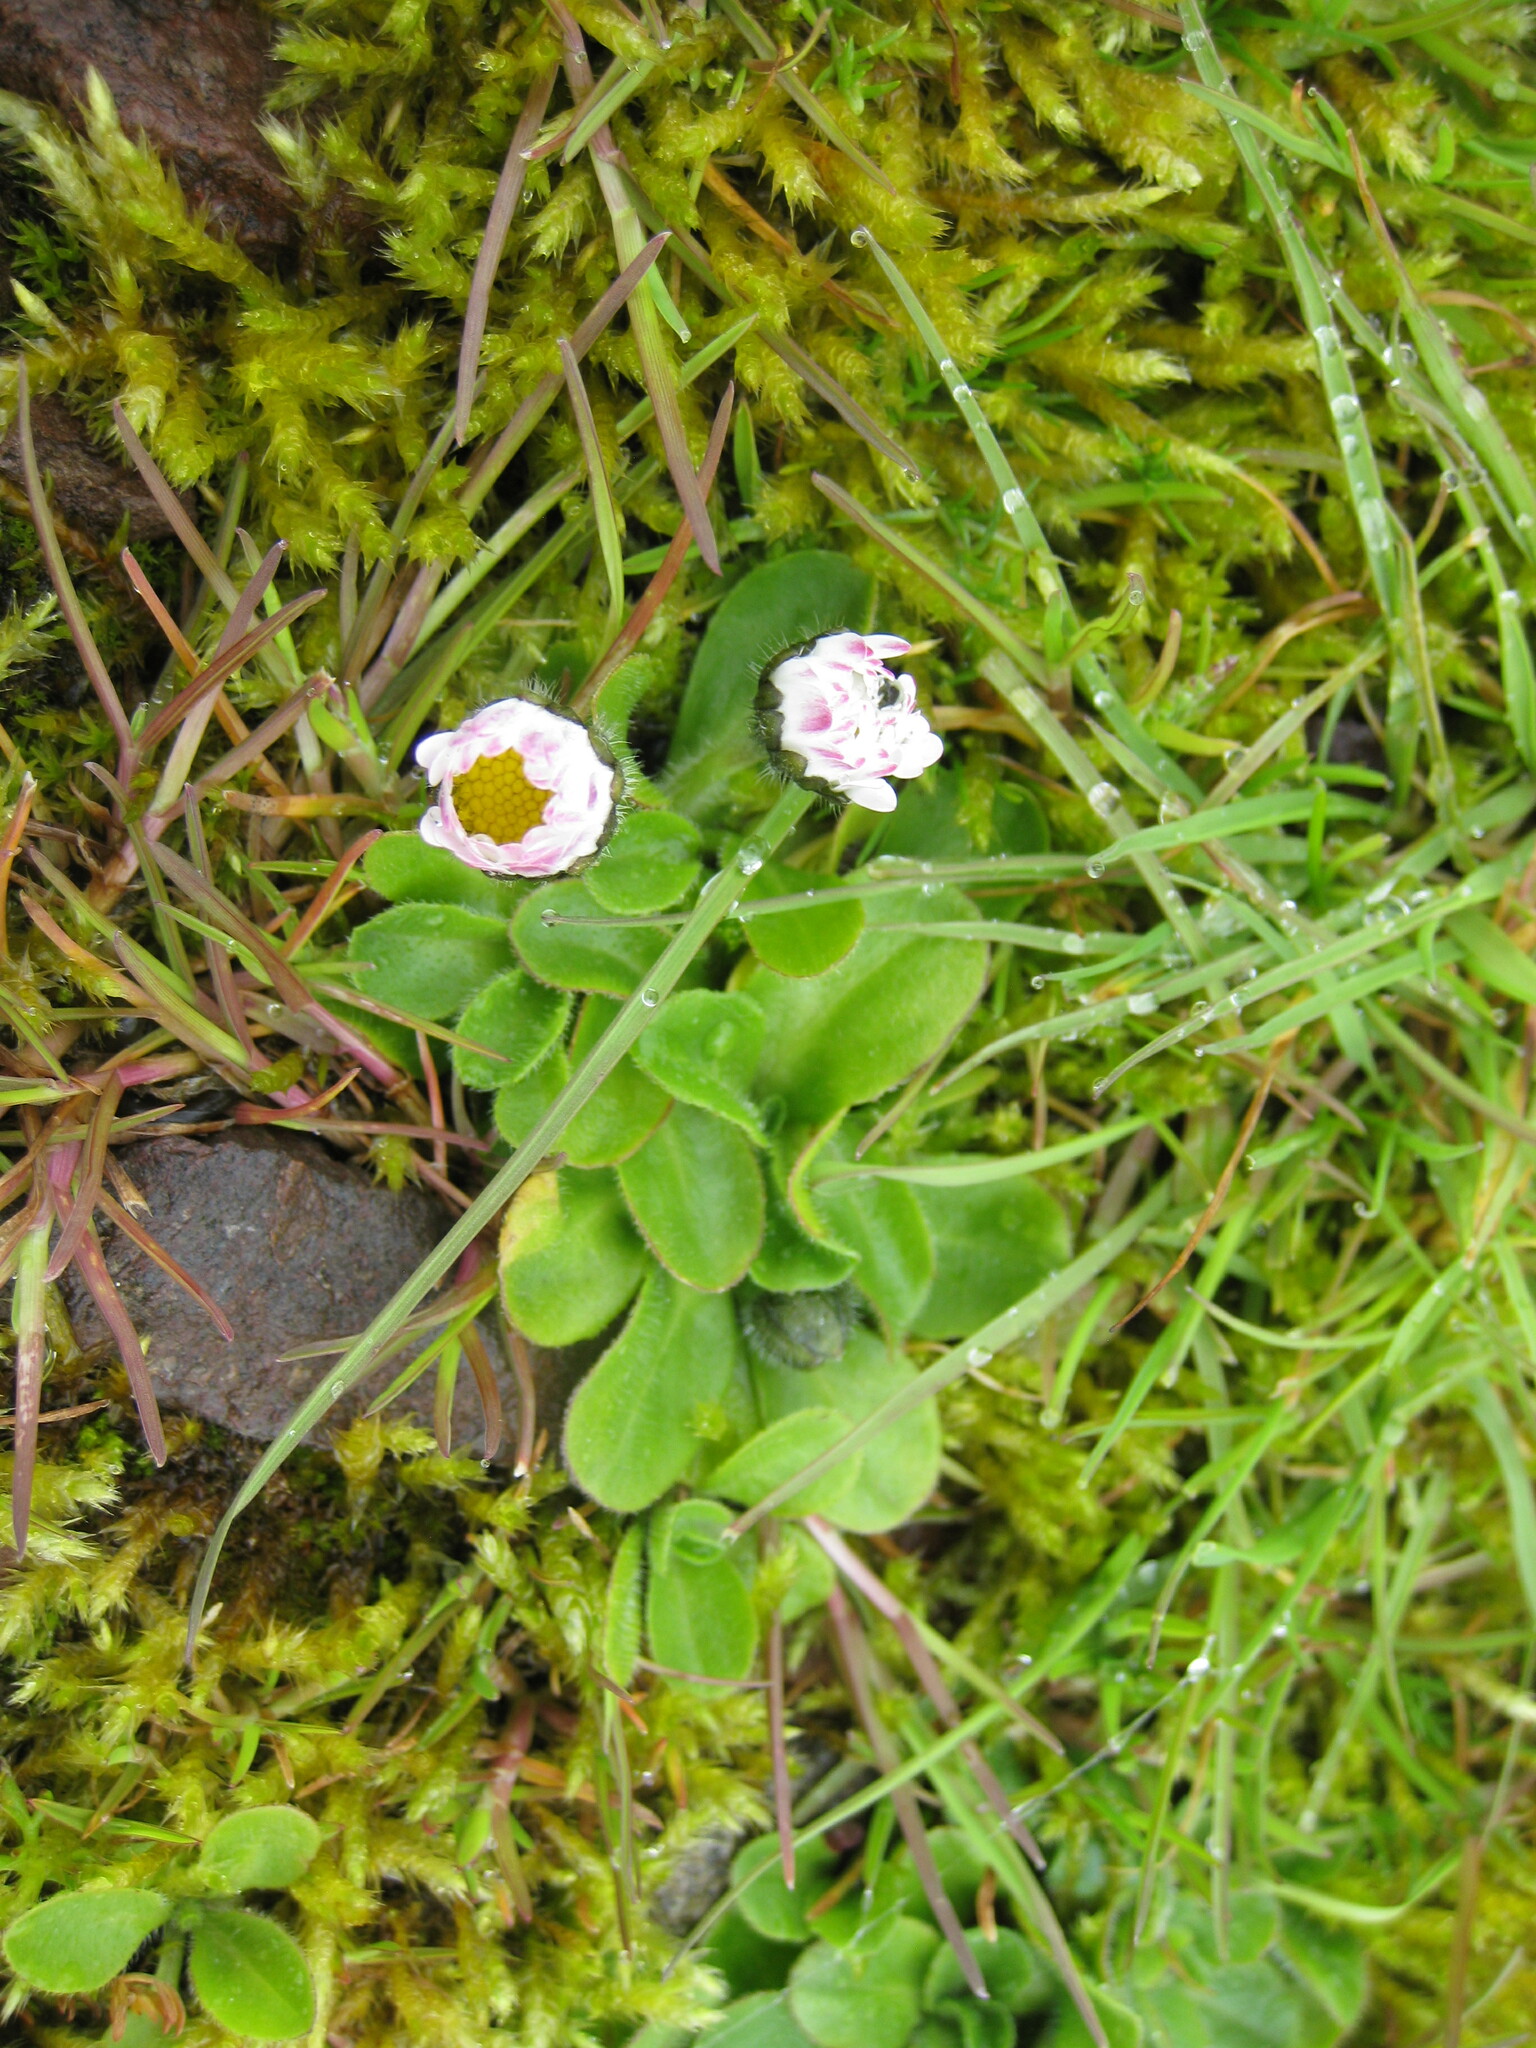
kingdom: Plantae
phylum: Tracheophyta
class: Magnoliopsida
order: Asterales
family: Asteraceae
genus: Bellis
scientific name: Bellis perennis
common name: Lawndaisy
